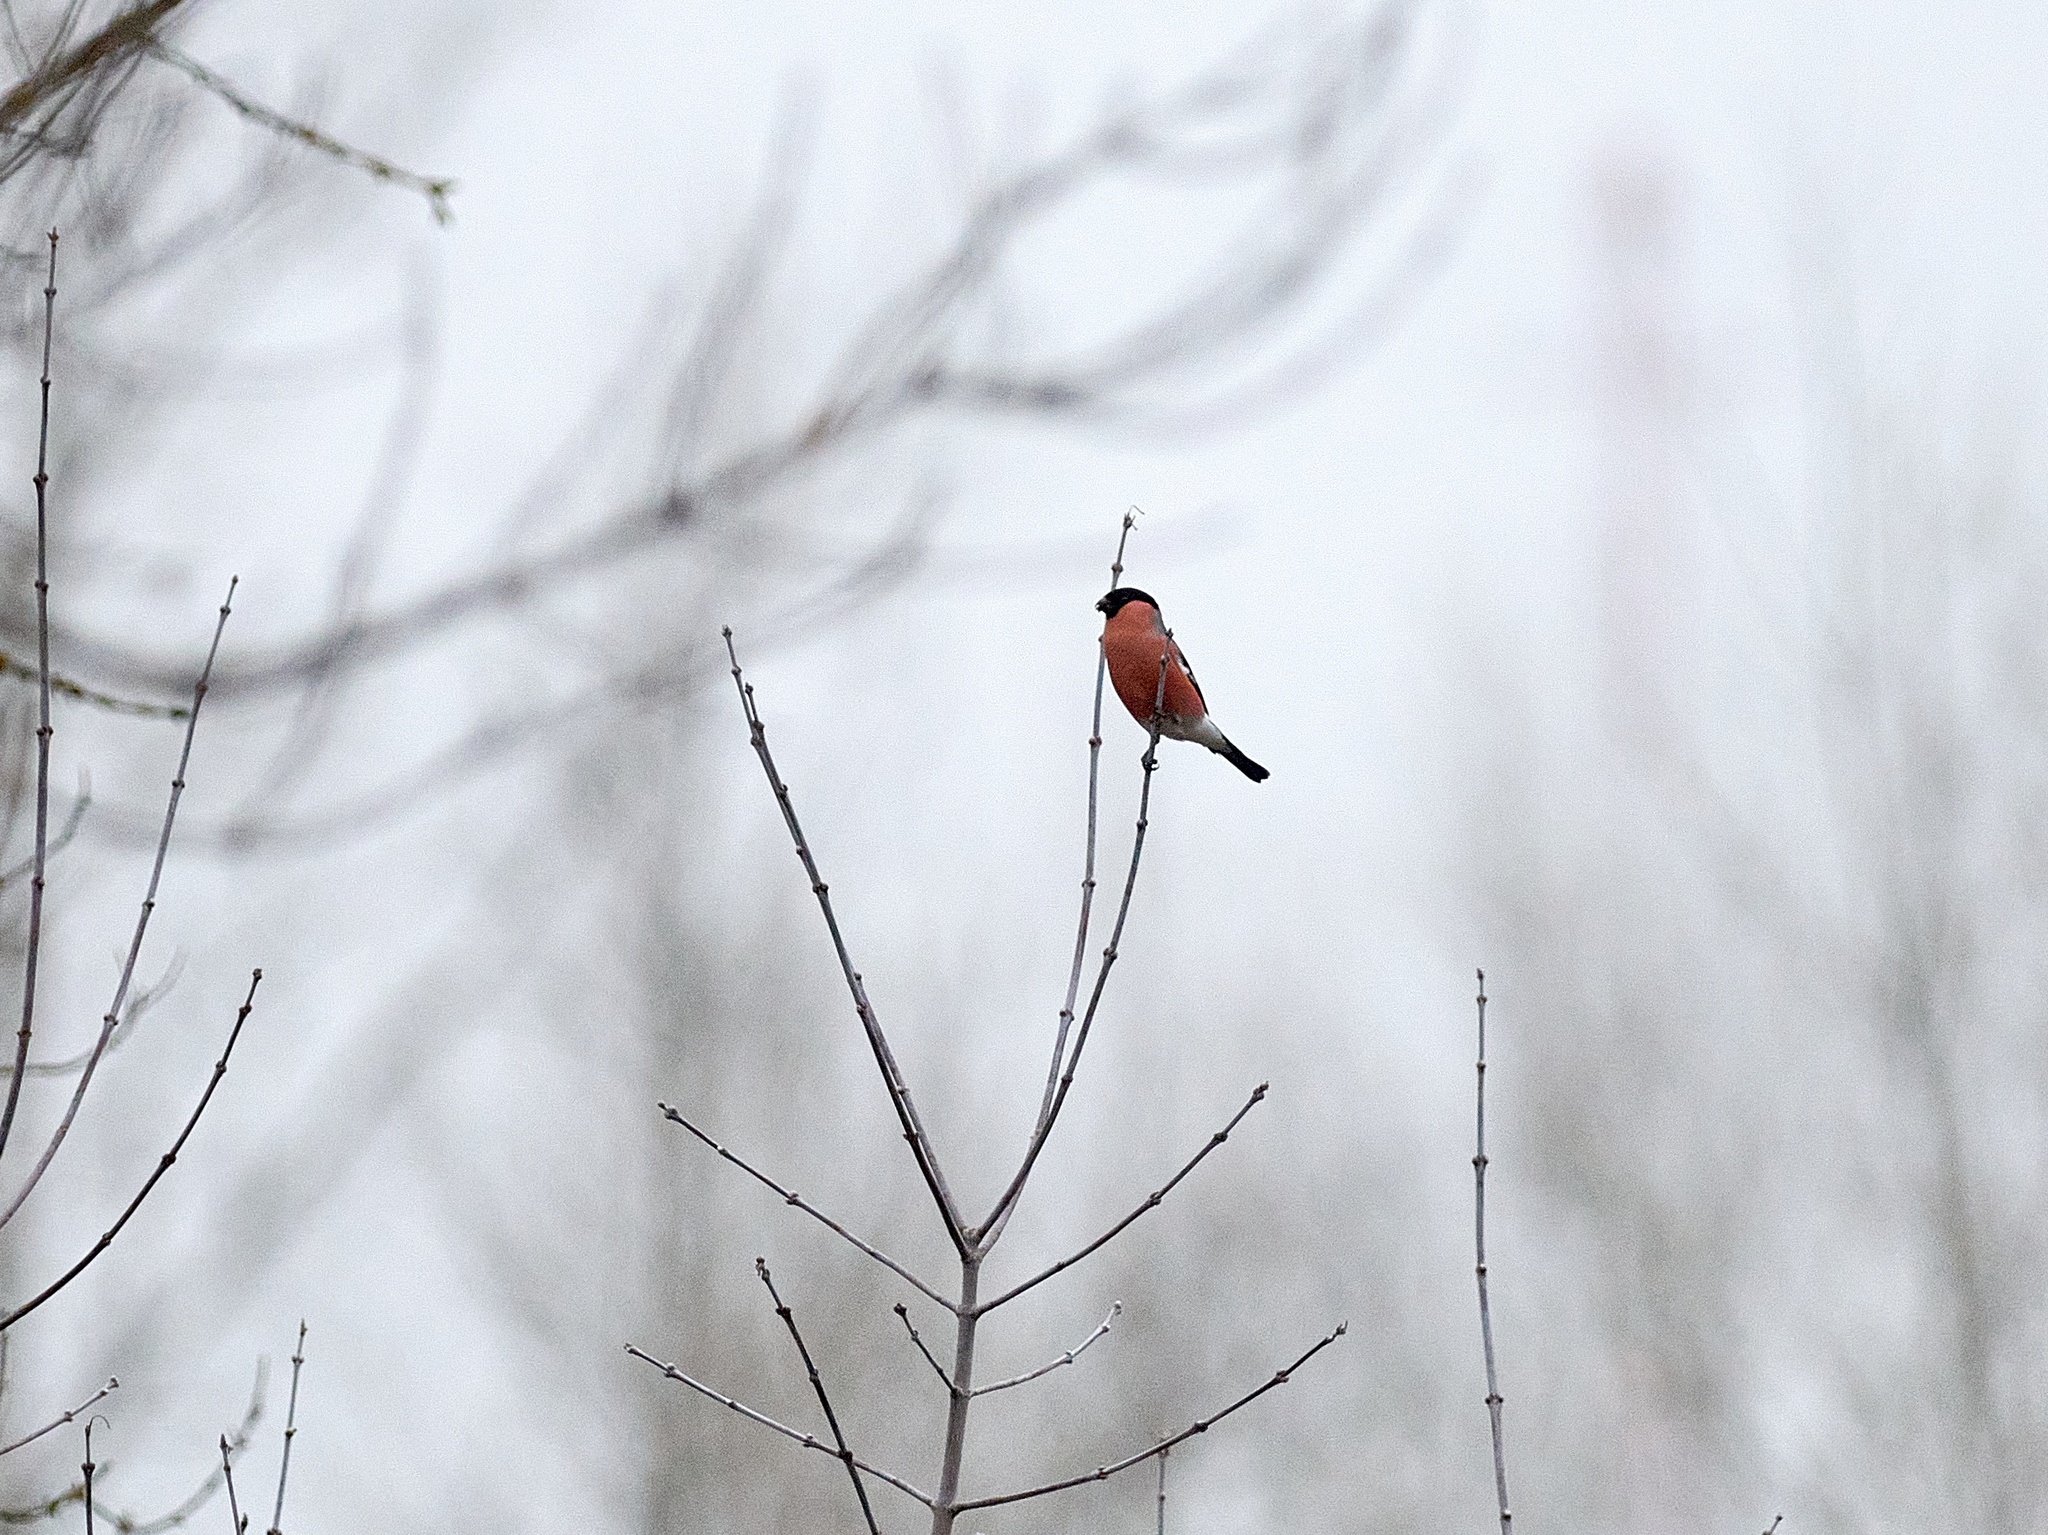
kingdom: Animalia
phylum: Chordata
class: Aves
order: Passeriformes
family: Fringillidae
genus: Pyrrhula
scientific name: Pyrrhula pyrrhula
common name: Eurasian bullfinch
